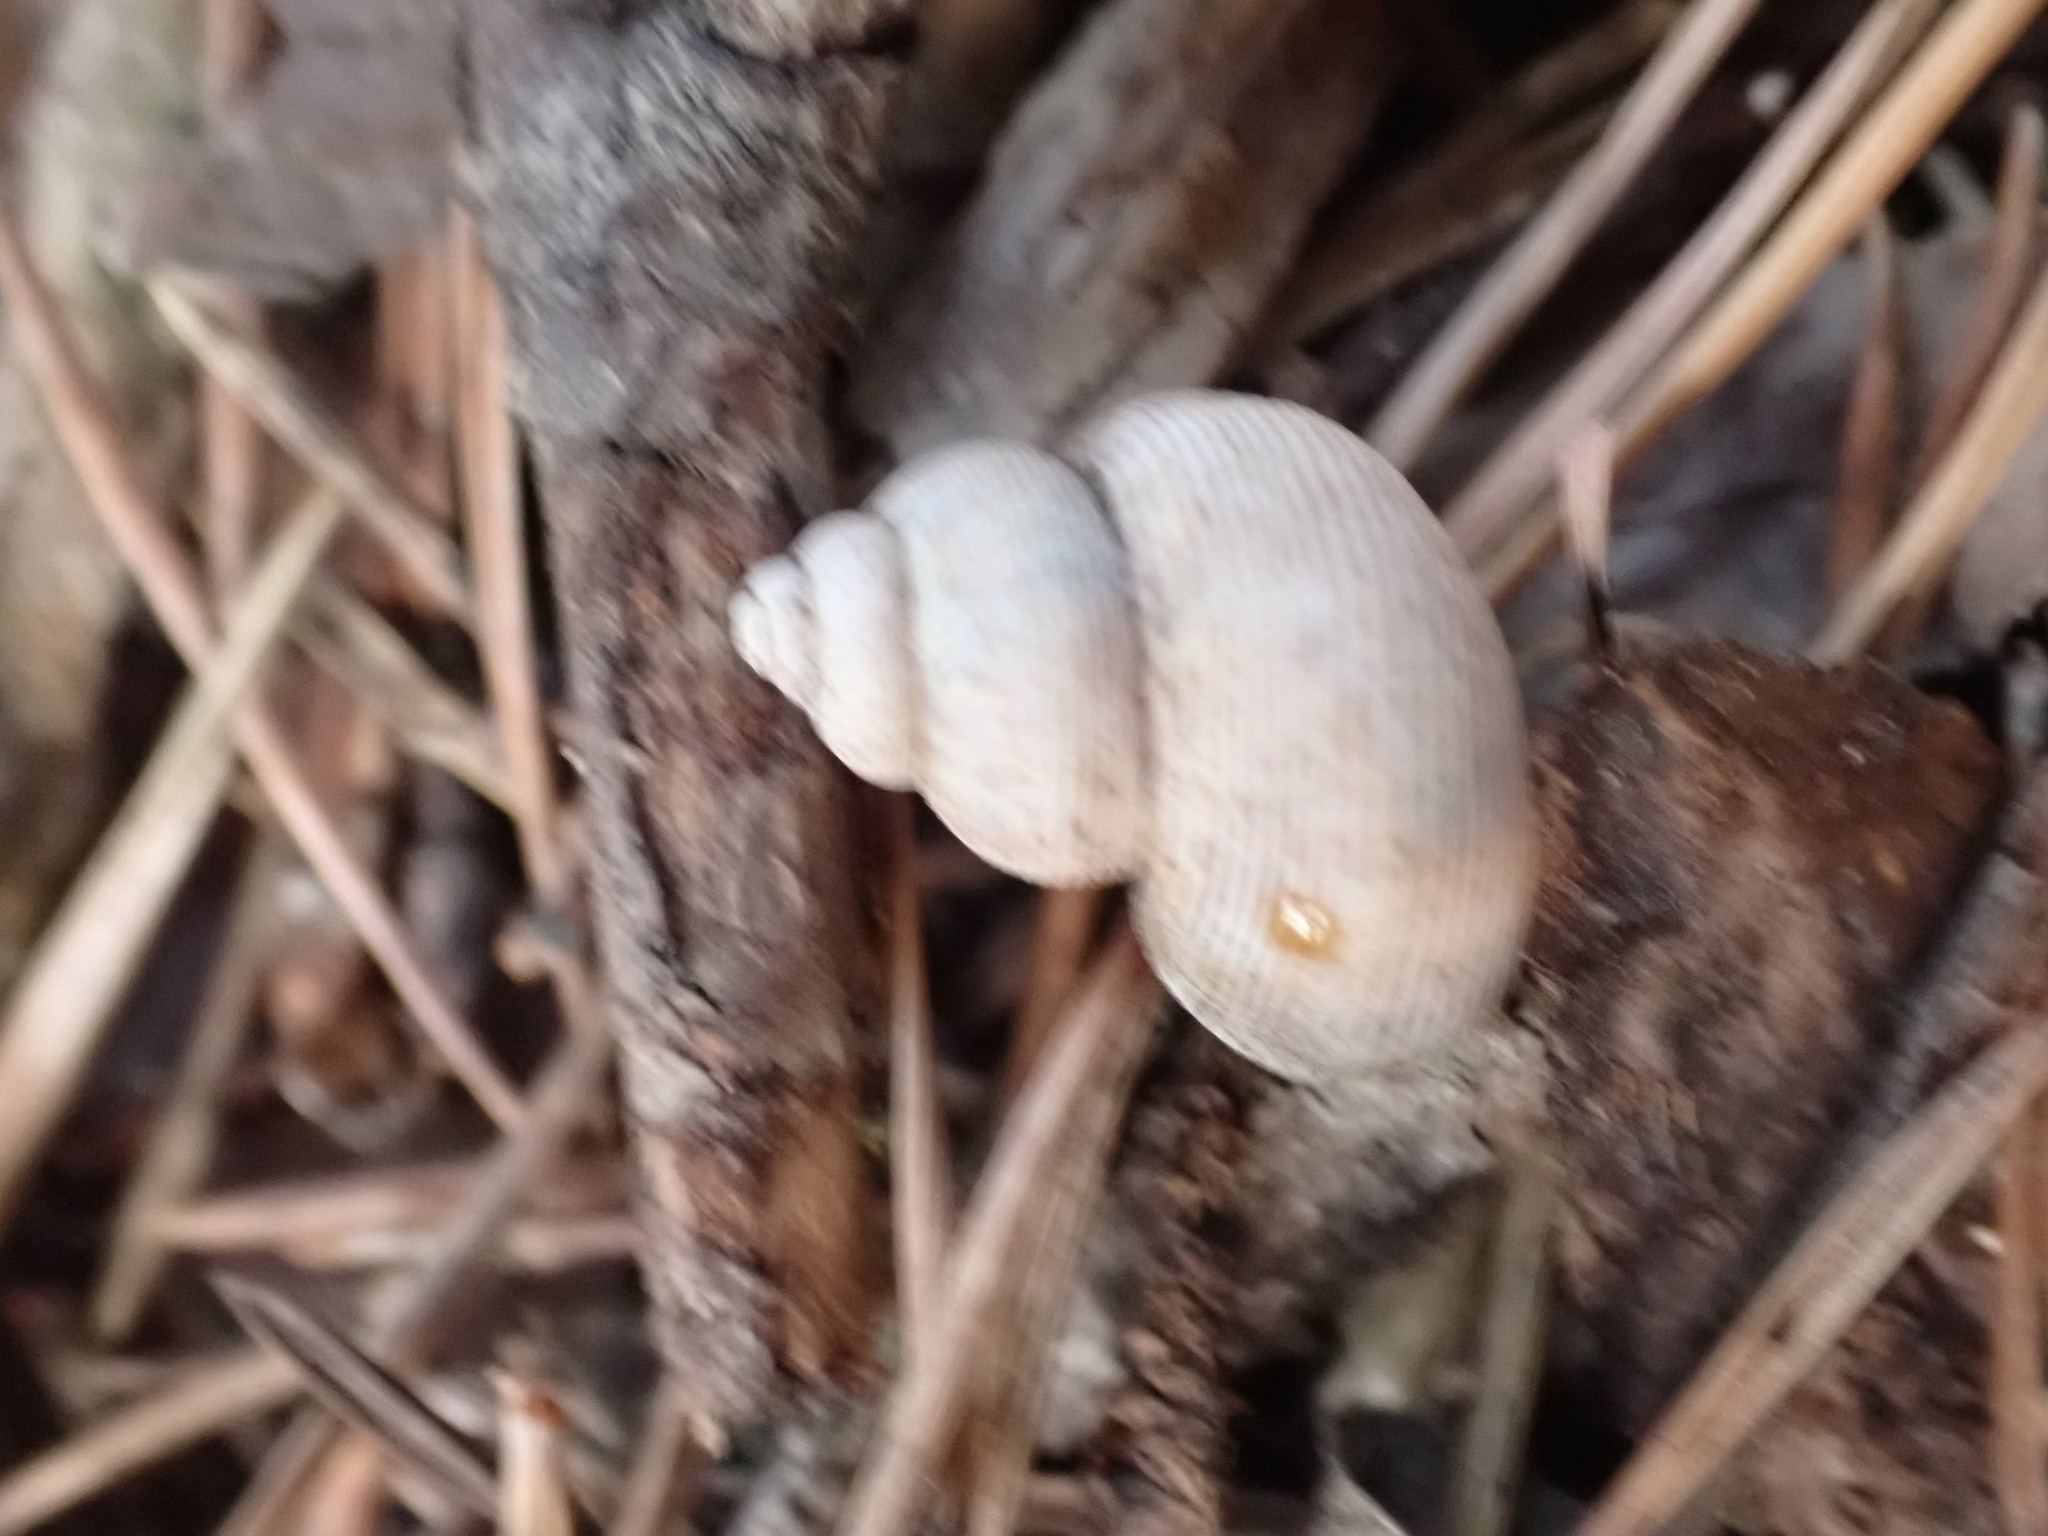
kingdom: Animalia
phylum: Mollusca
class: Gastropoda
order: Littorinimorpha
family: Pomatiidae
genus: Pomatias
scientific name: Pomatias elegans
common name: Red-mouthed snail
